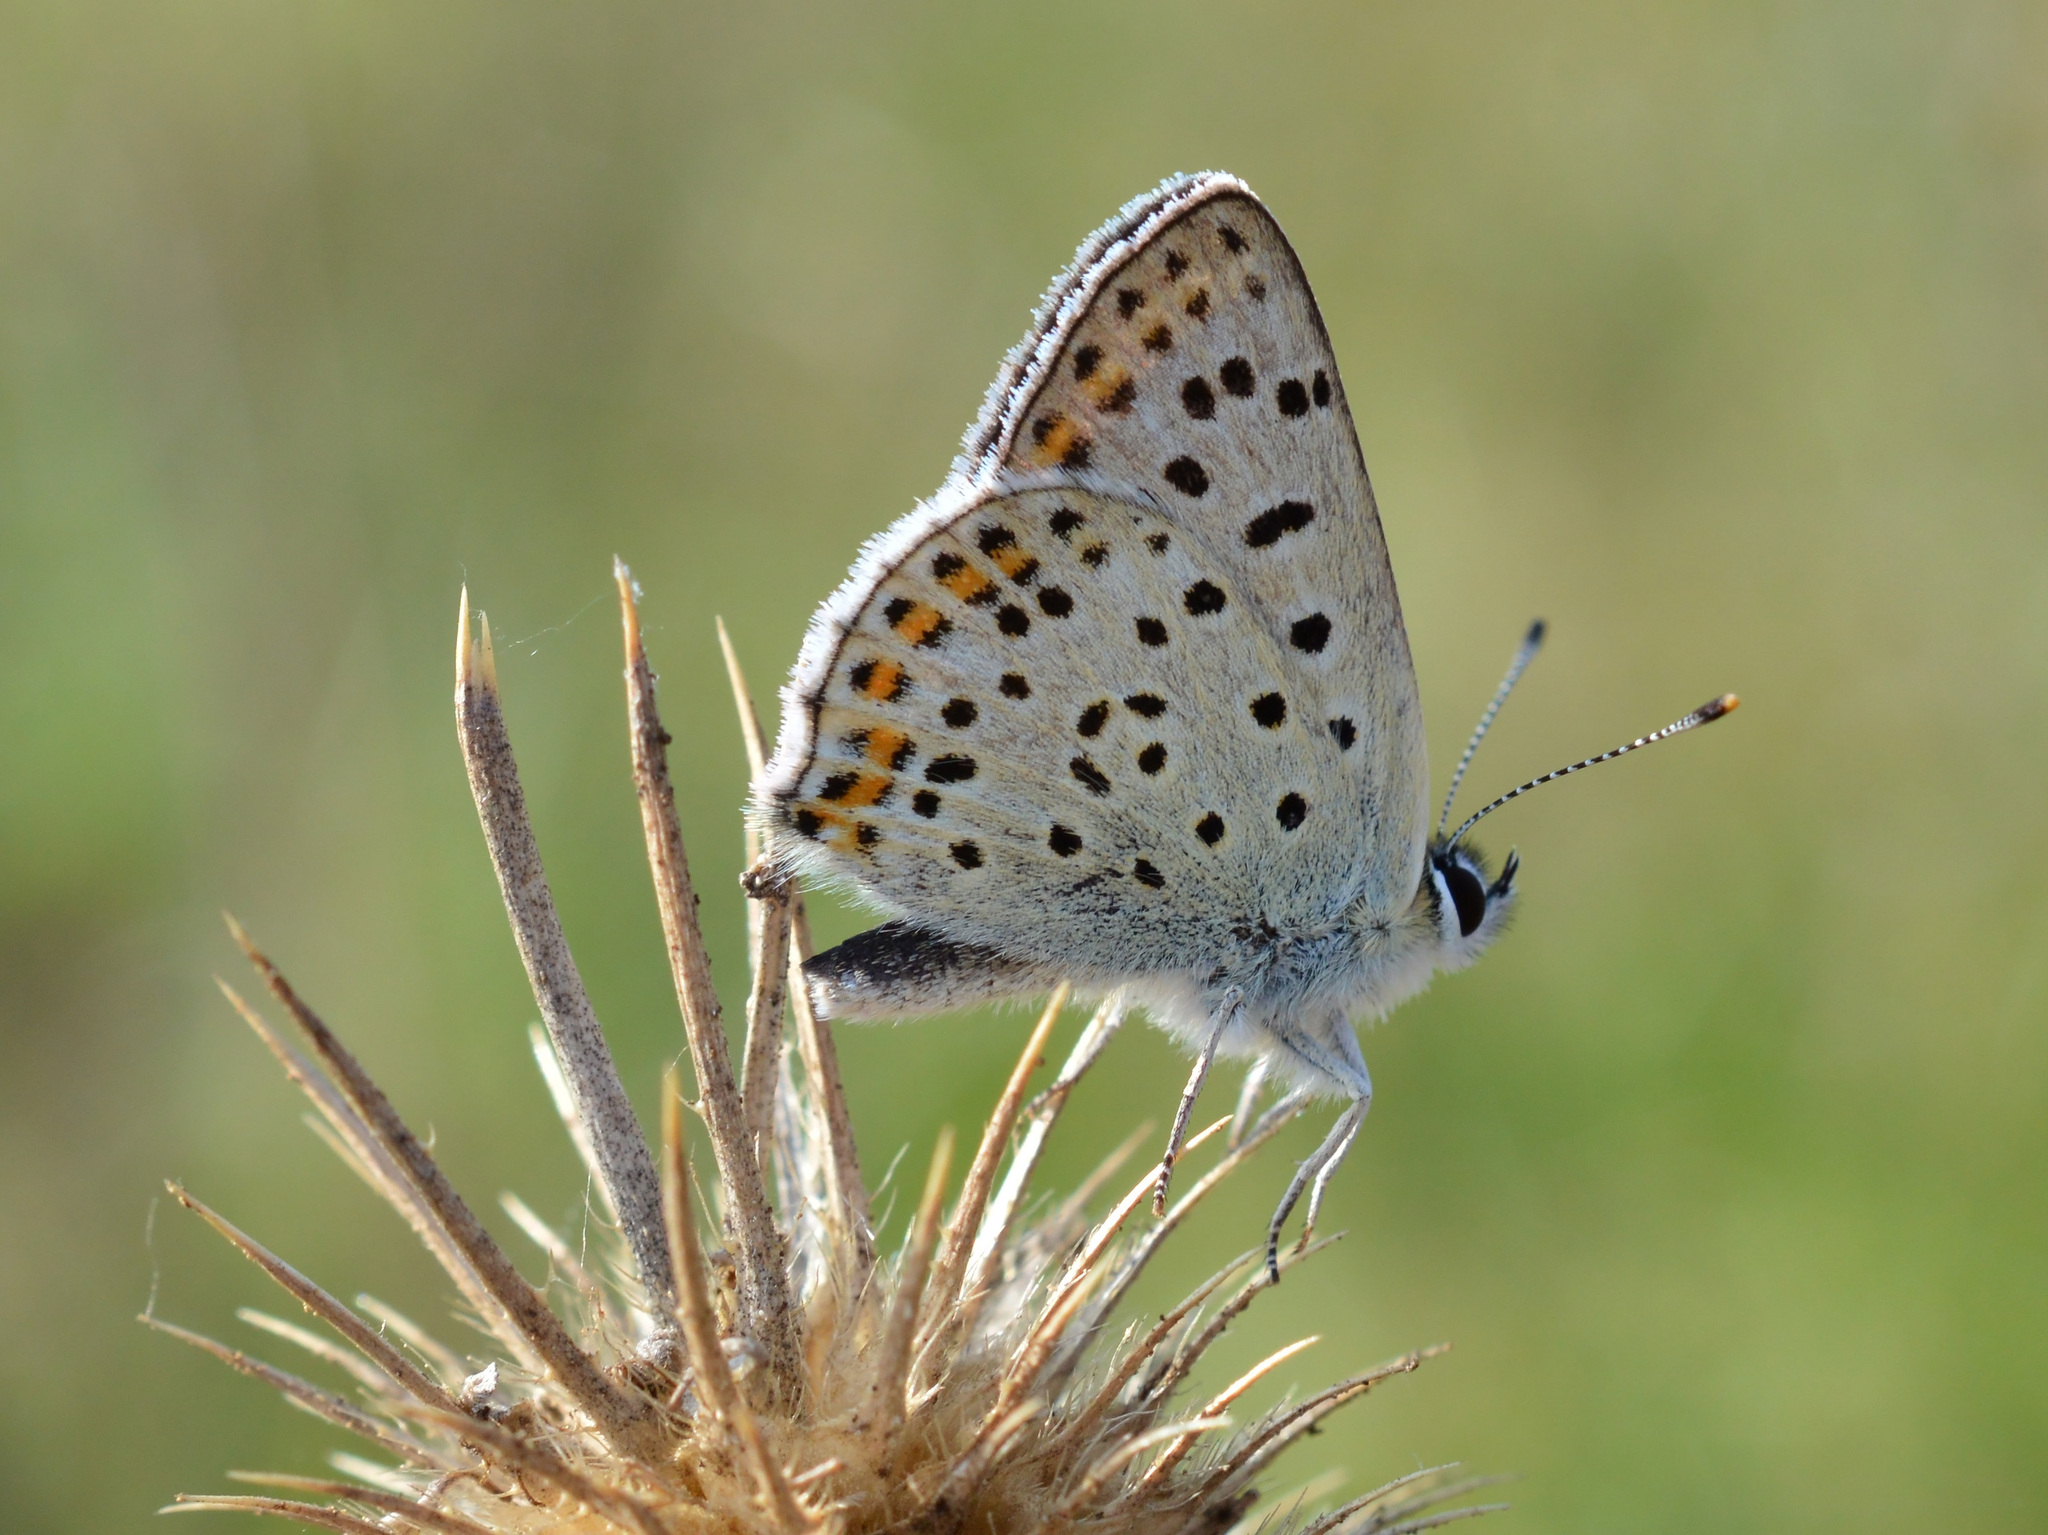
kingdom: Animalia
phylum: Arthropoda
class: Insecta
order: Lepidoptera
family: Lycaenidae
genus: Loweia
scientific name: Loweia tityrus
